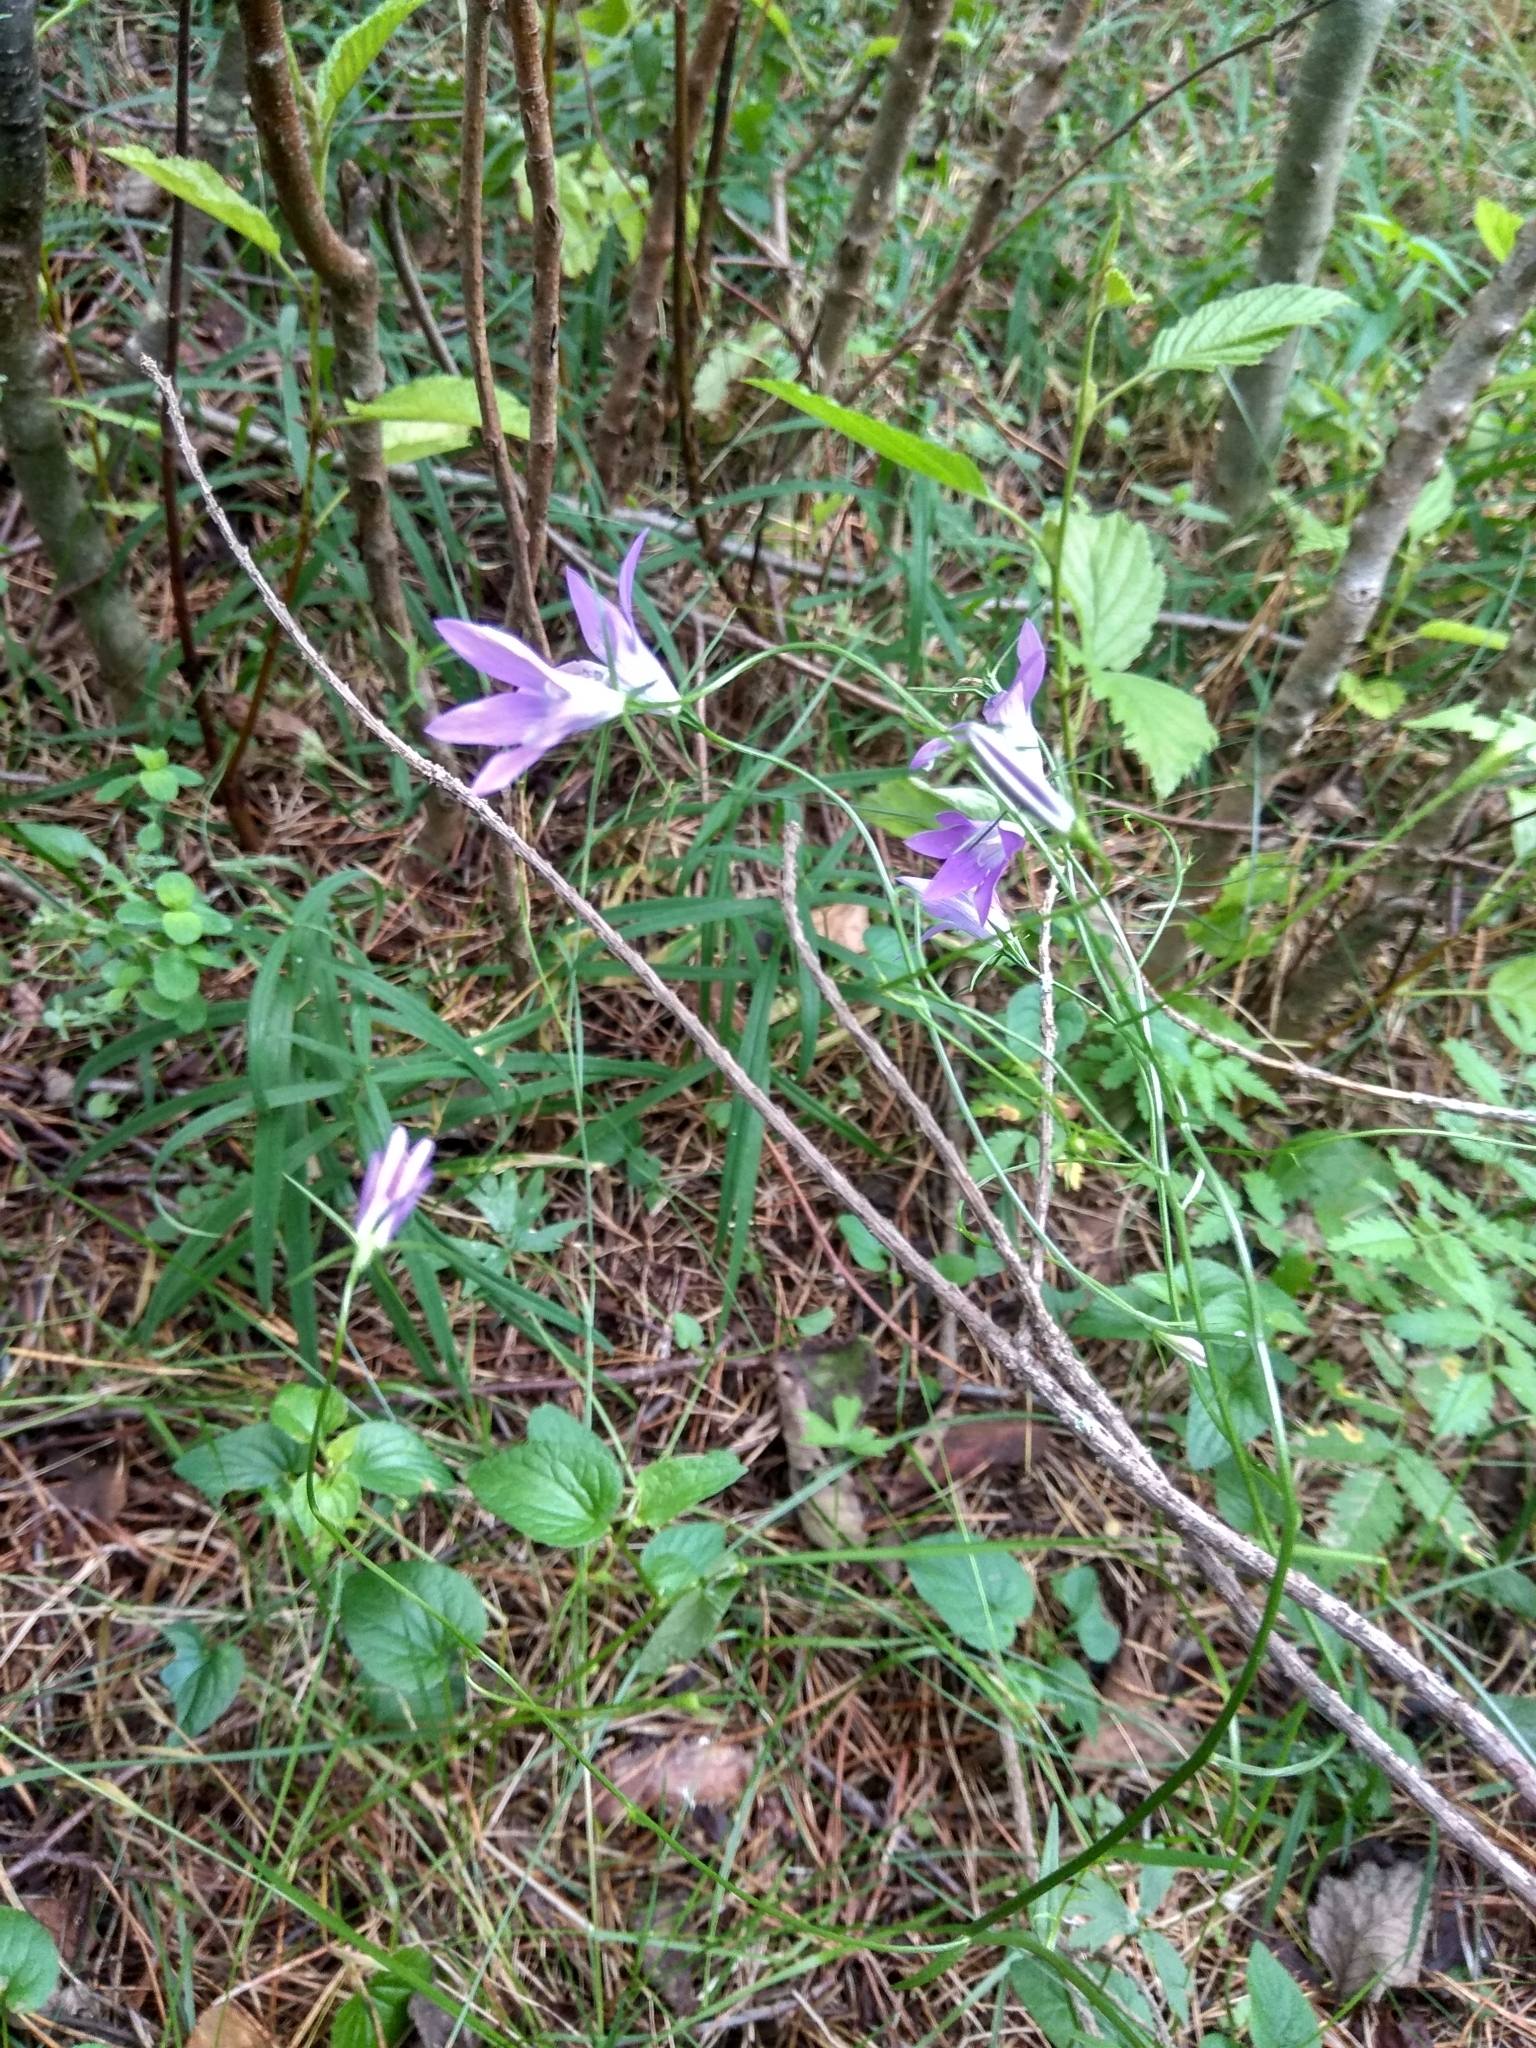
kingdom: Plantae
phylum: Tracheophyta
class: Magnoliopsida
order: Asterales
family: Campanulaceae
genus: Campanula
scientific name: Campanula patula
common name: Spreading bellflower
